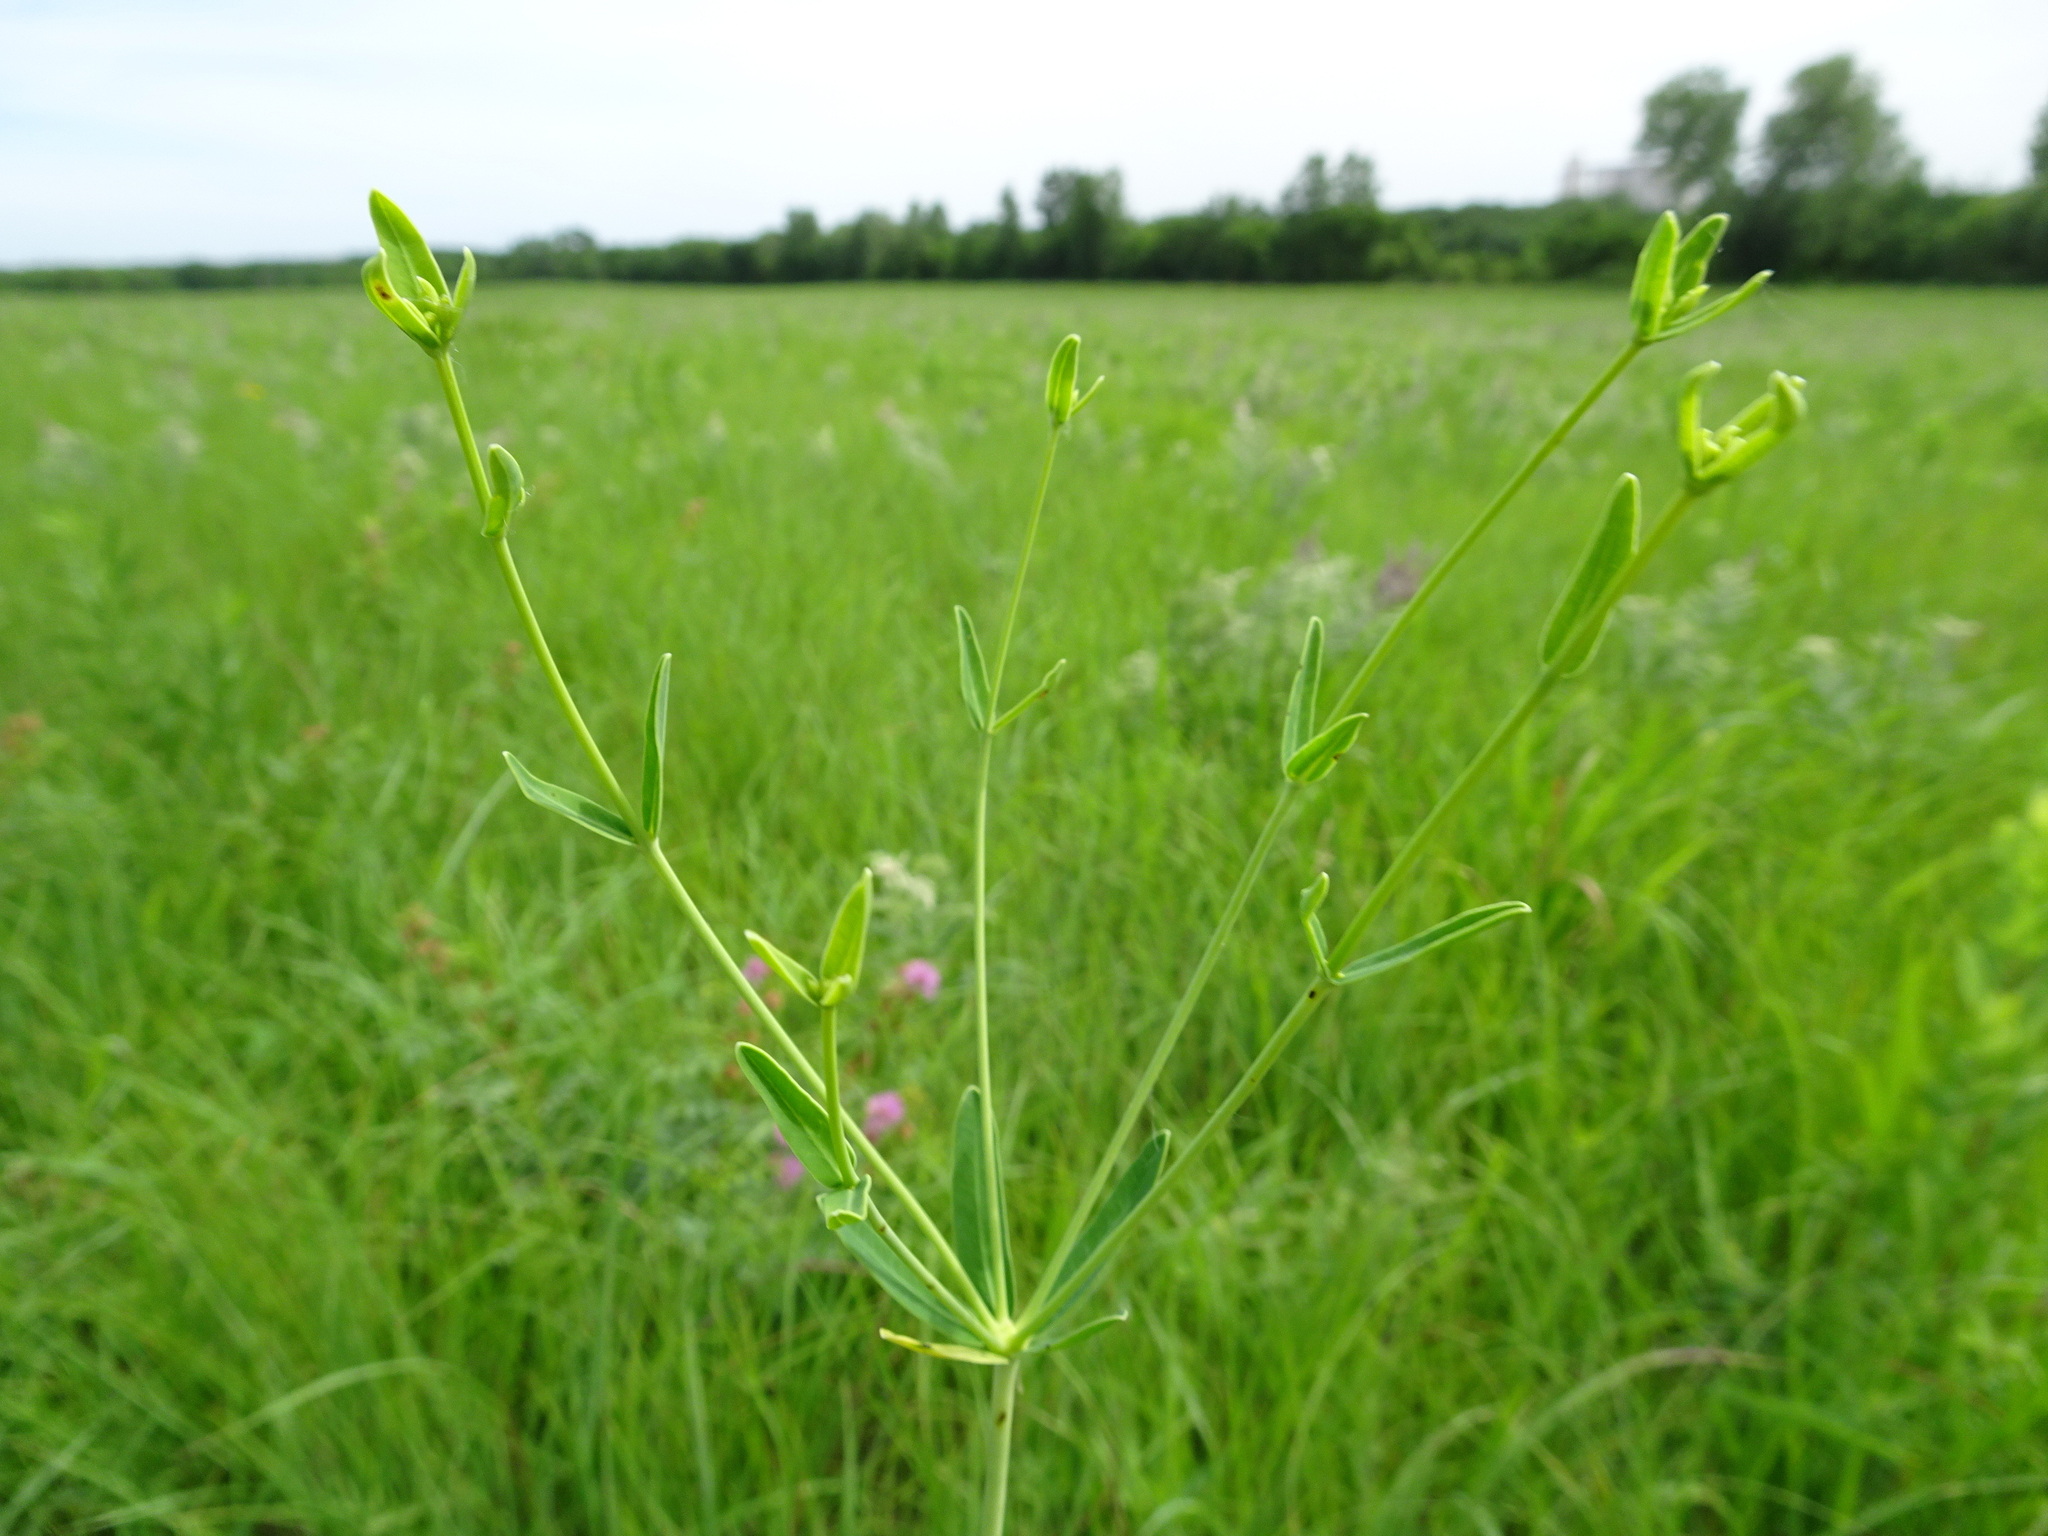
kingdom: Plantae
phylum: Tracheophyta
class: Magnoliopsida
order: Malpighiales
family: Euphorbiaceae
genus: Euphorbia
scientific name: Euphorbia corollata
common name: Flowering spurge
